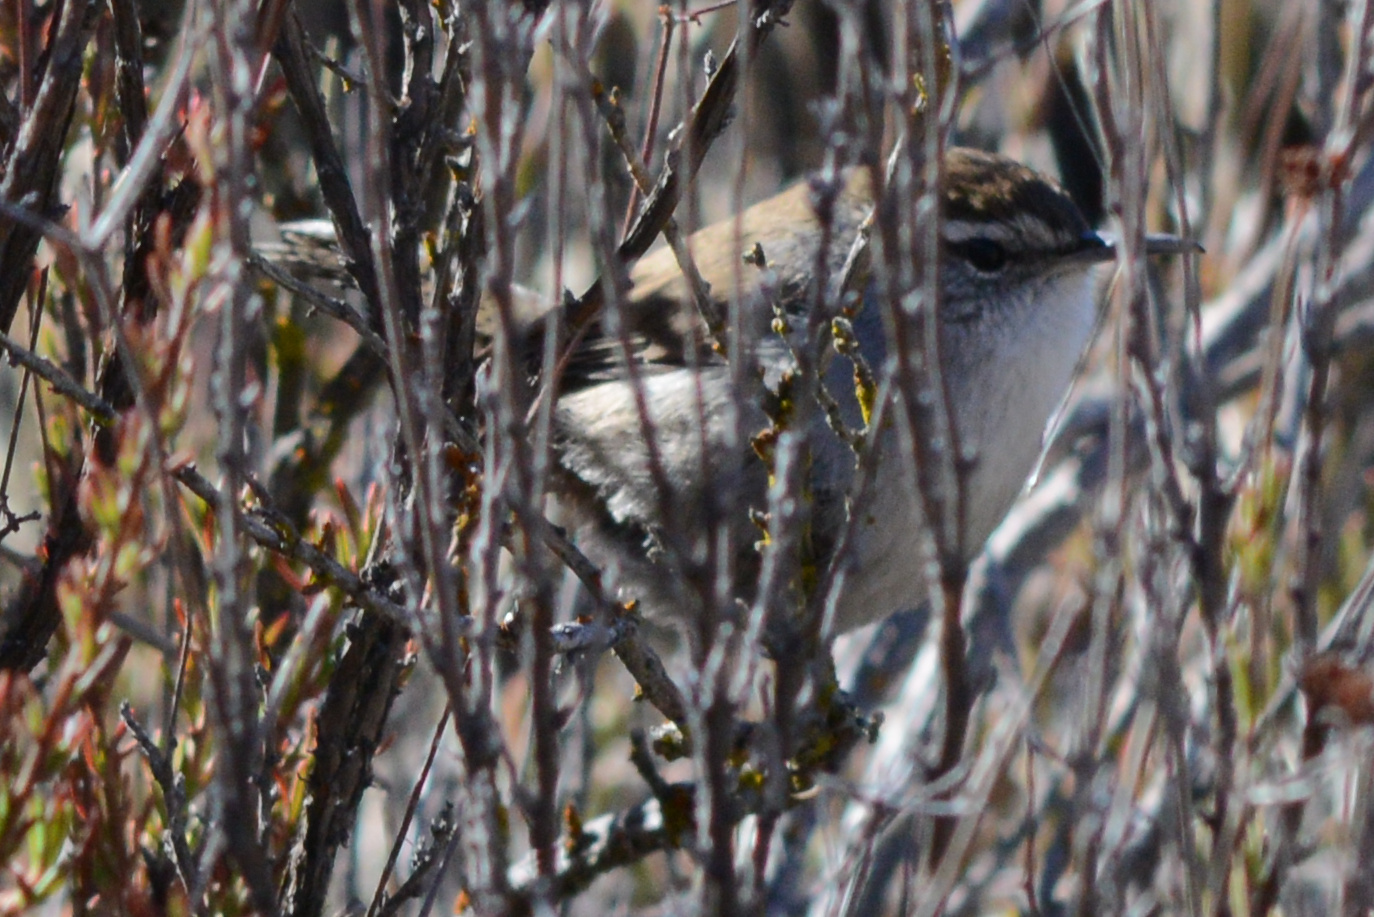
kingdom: Animalia
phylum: Chordata
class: Aves
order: Passeriformes
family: Troglodytidae
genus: Thryomanes
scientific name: Thryomanes bewickii
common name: Bewick's wren
